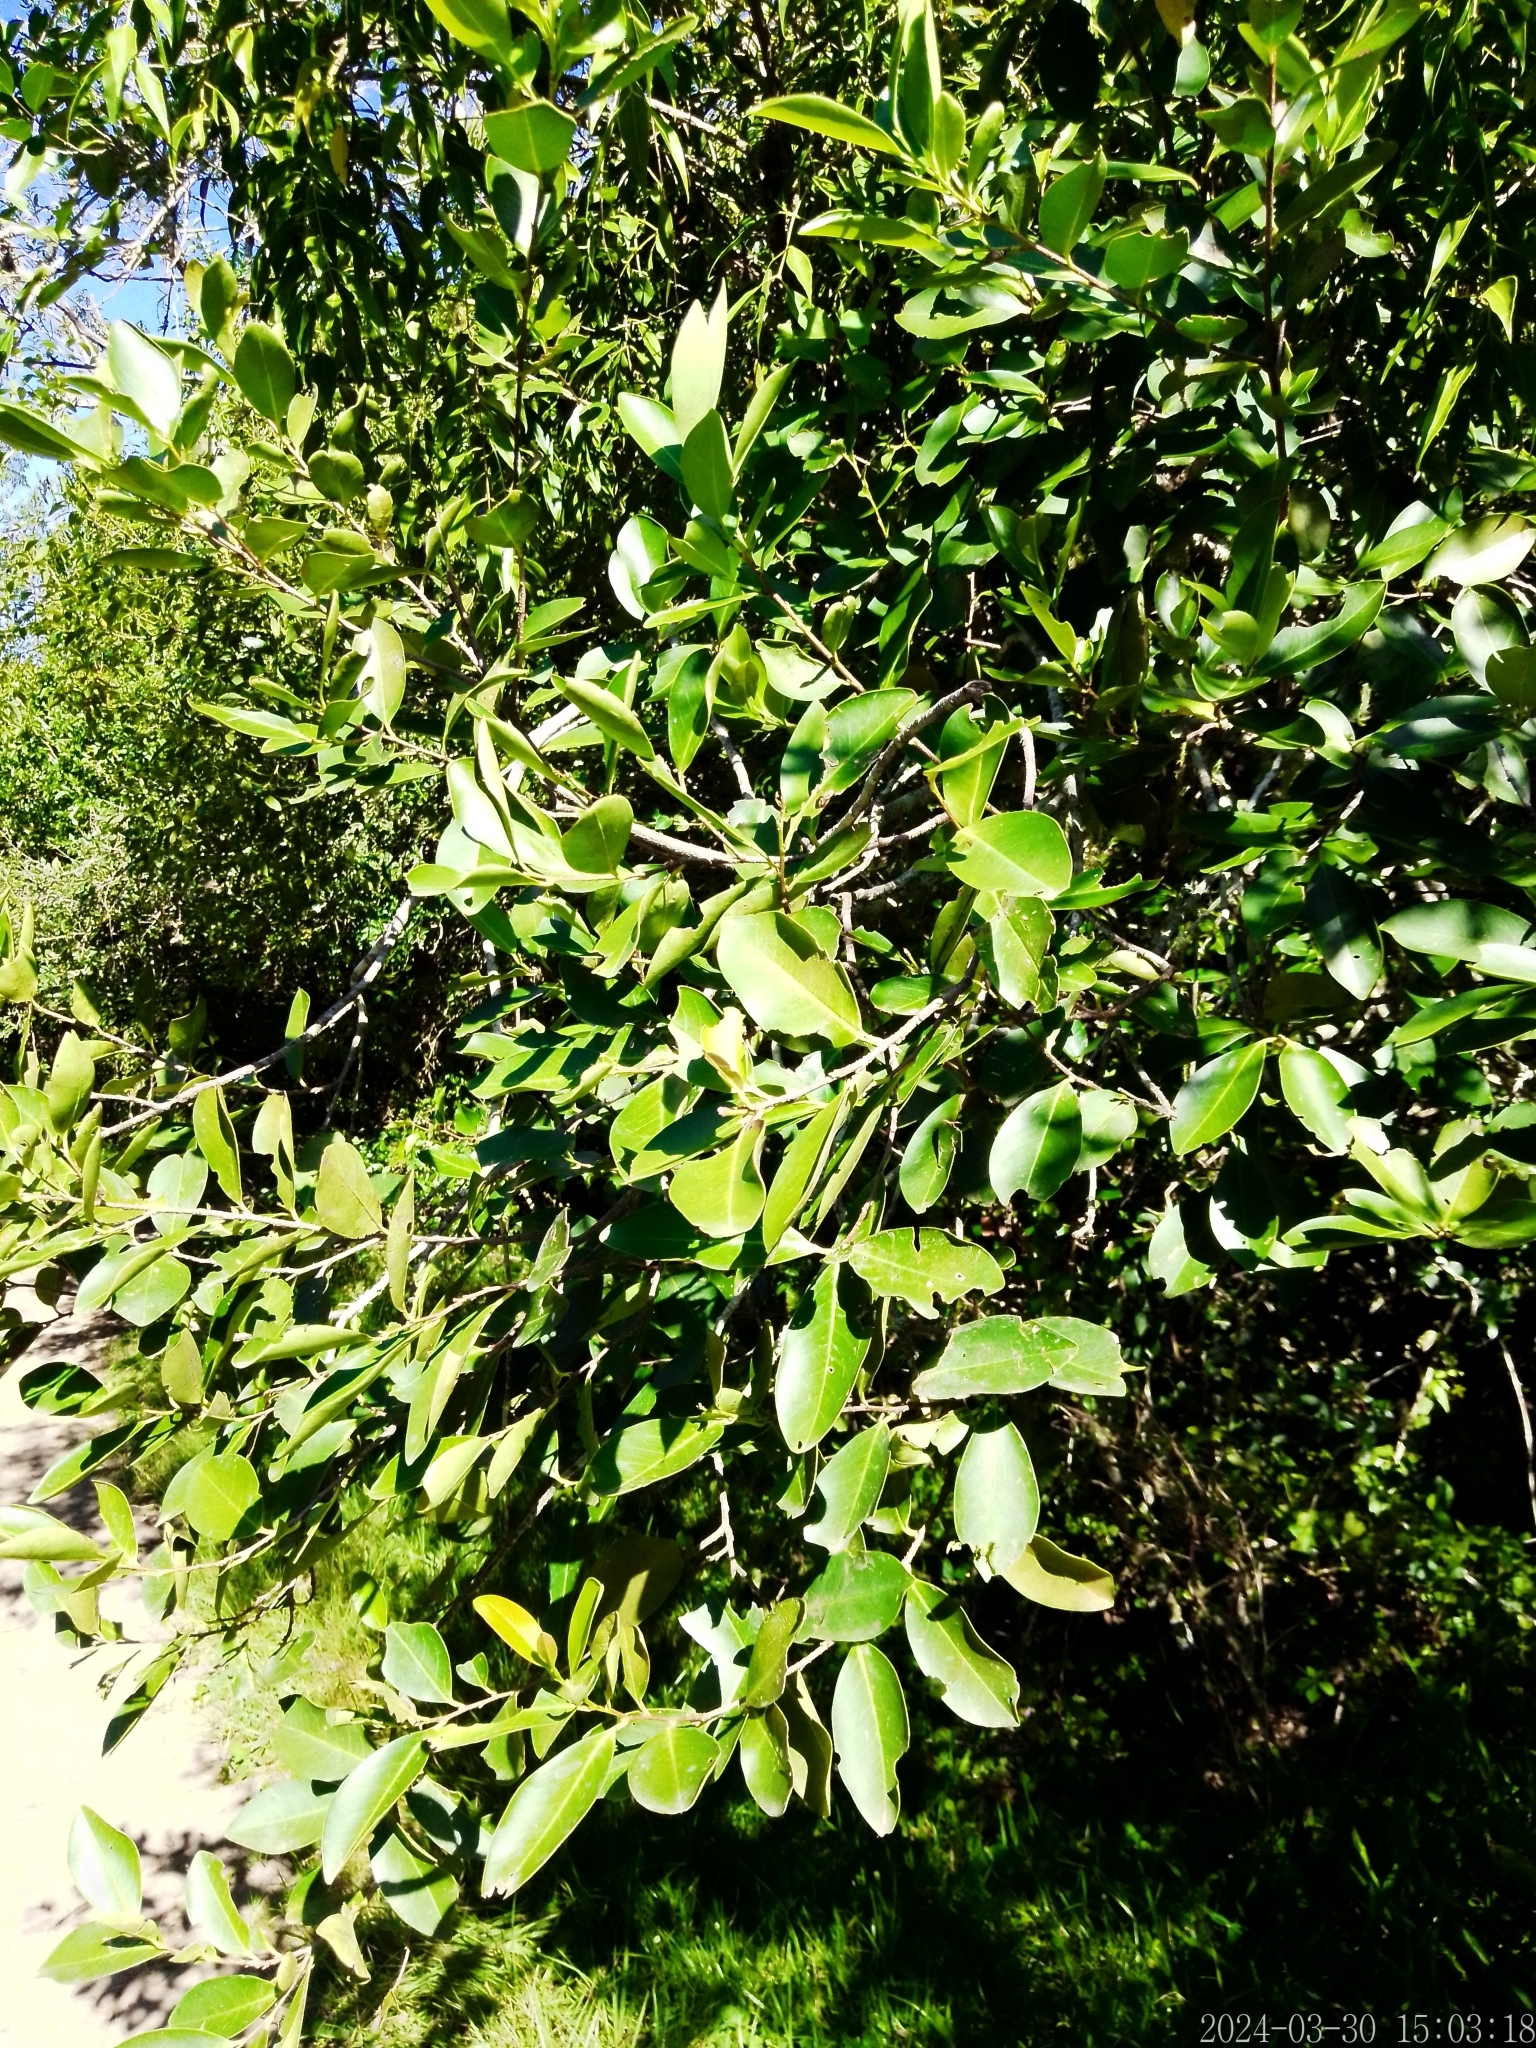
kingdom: Plantae
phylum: Tracheophyta
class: Magnoliopsida
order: Rosales
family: Rosaceae
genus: Prunus
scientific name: Prunus subcoriacea
